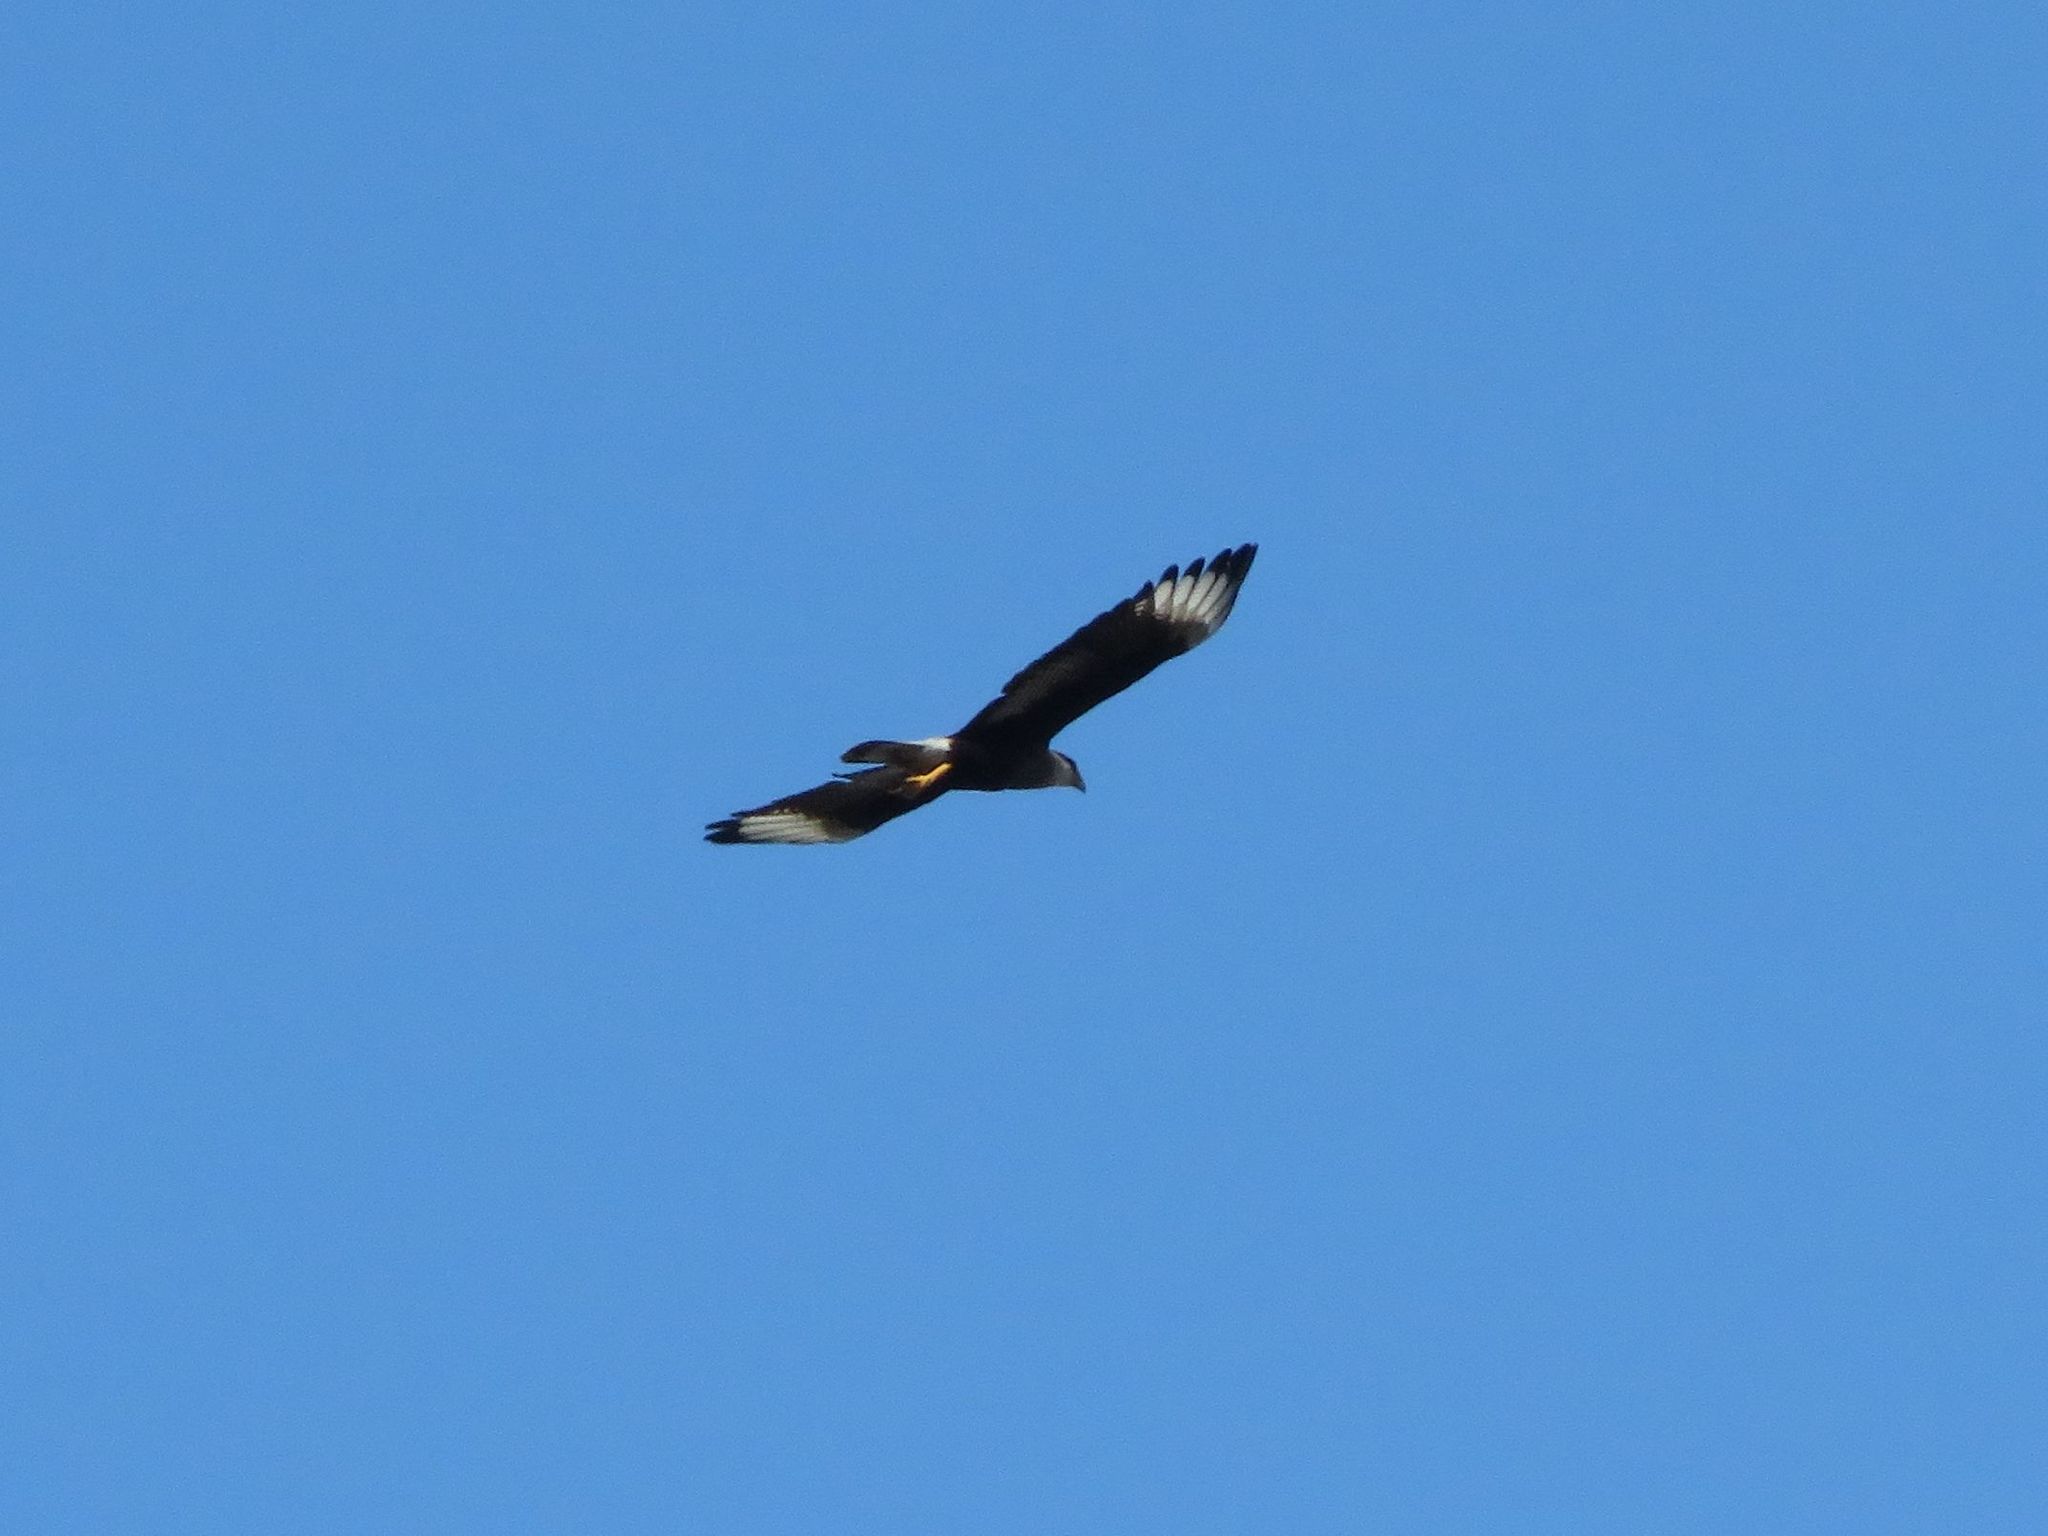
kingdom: Animalia
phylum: Chordata
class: Aves
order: Falconiformes
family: Falconidae
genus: Caracara
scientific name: Caracara plancus
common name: Southern caracara
